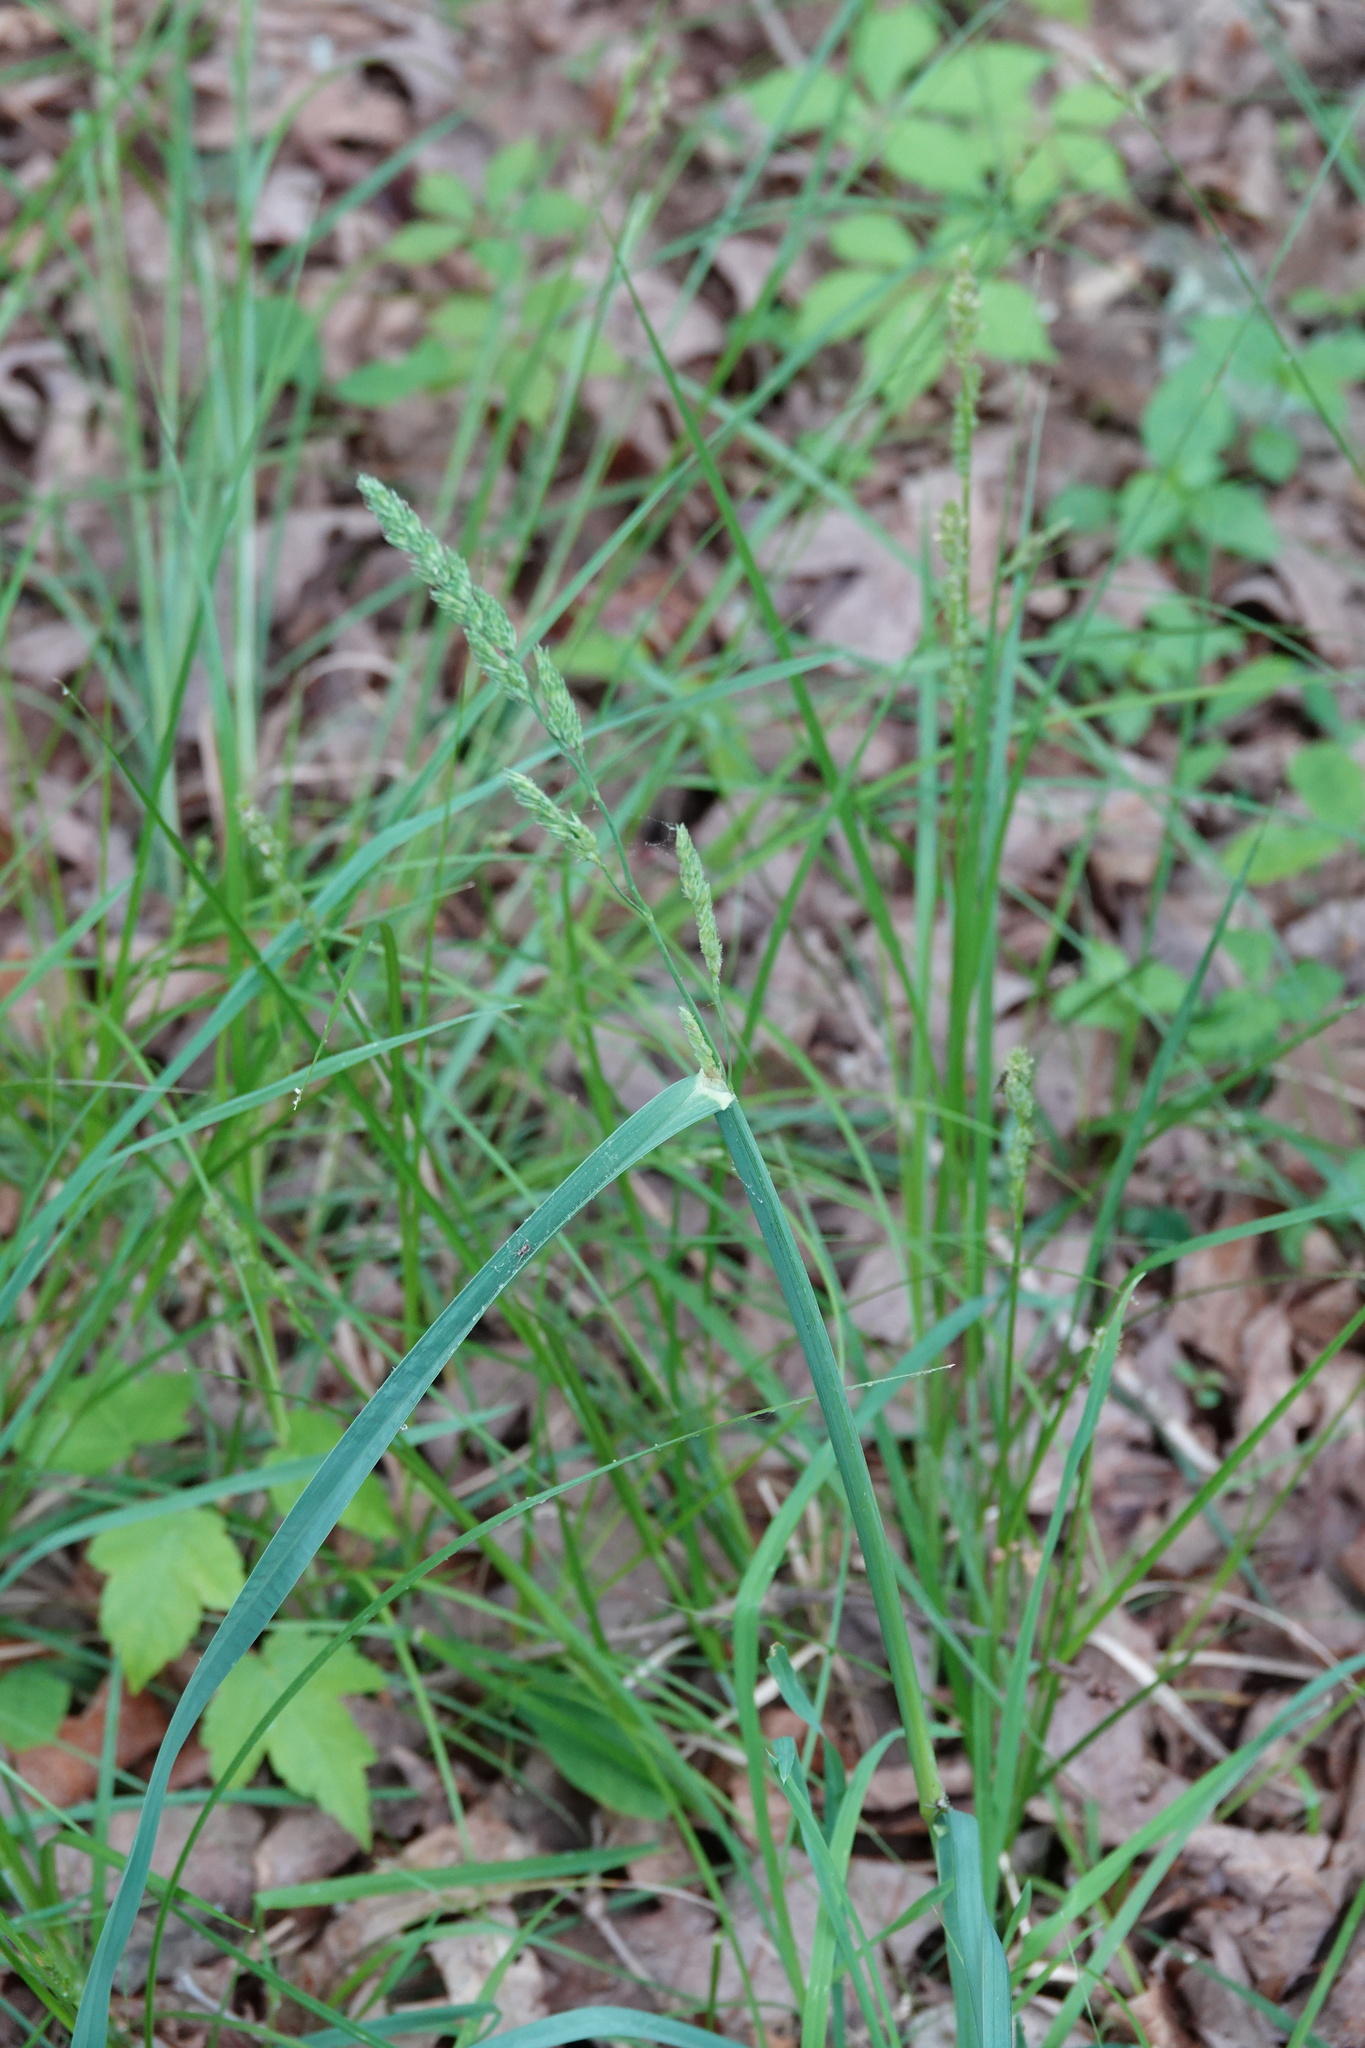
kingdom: Plantae
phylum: Tracheophyta
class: Liliopsida
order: Poales
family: Poaceae
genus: Dactylis
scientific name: Dactylis glomerata
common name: Orchardgrass
